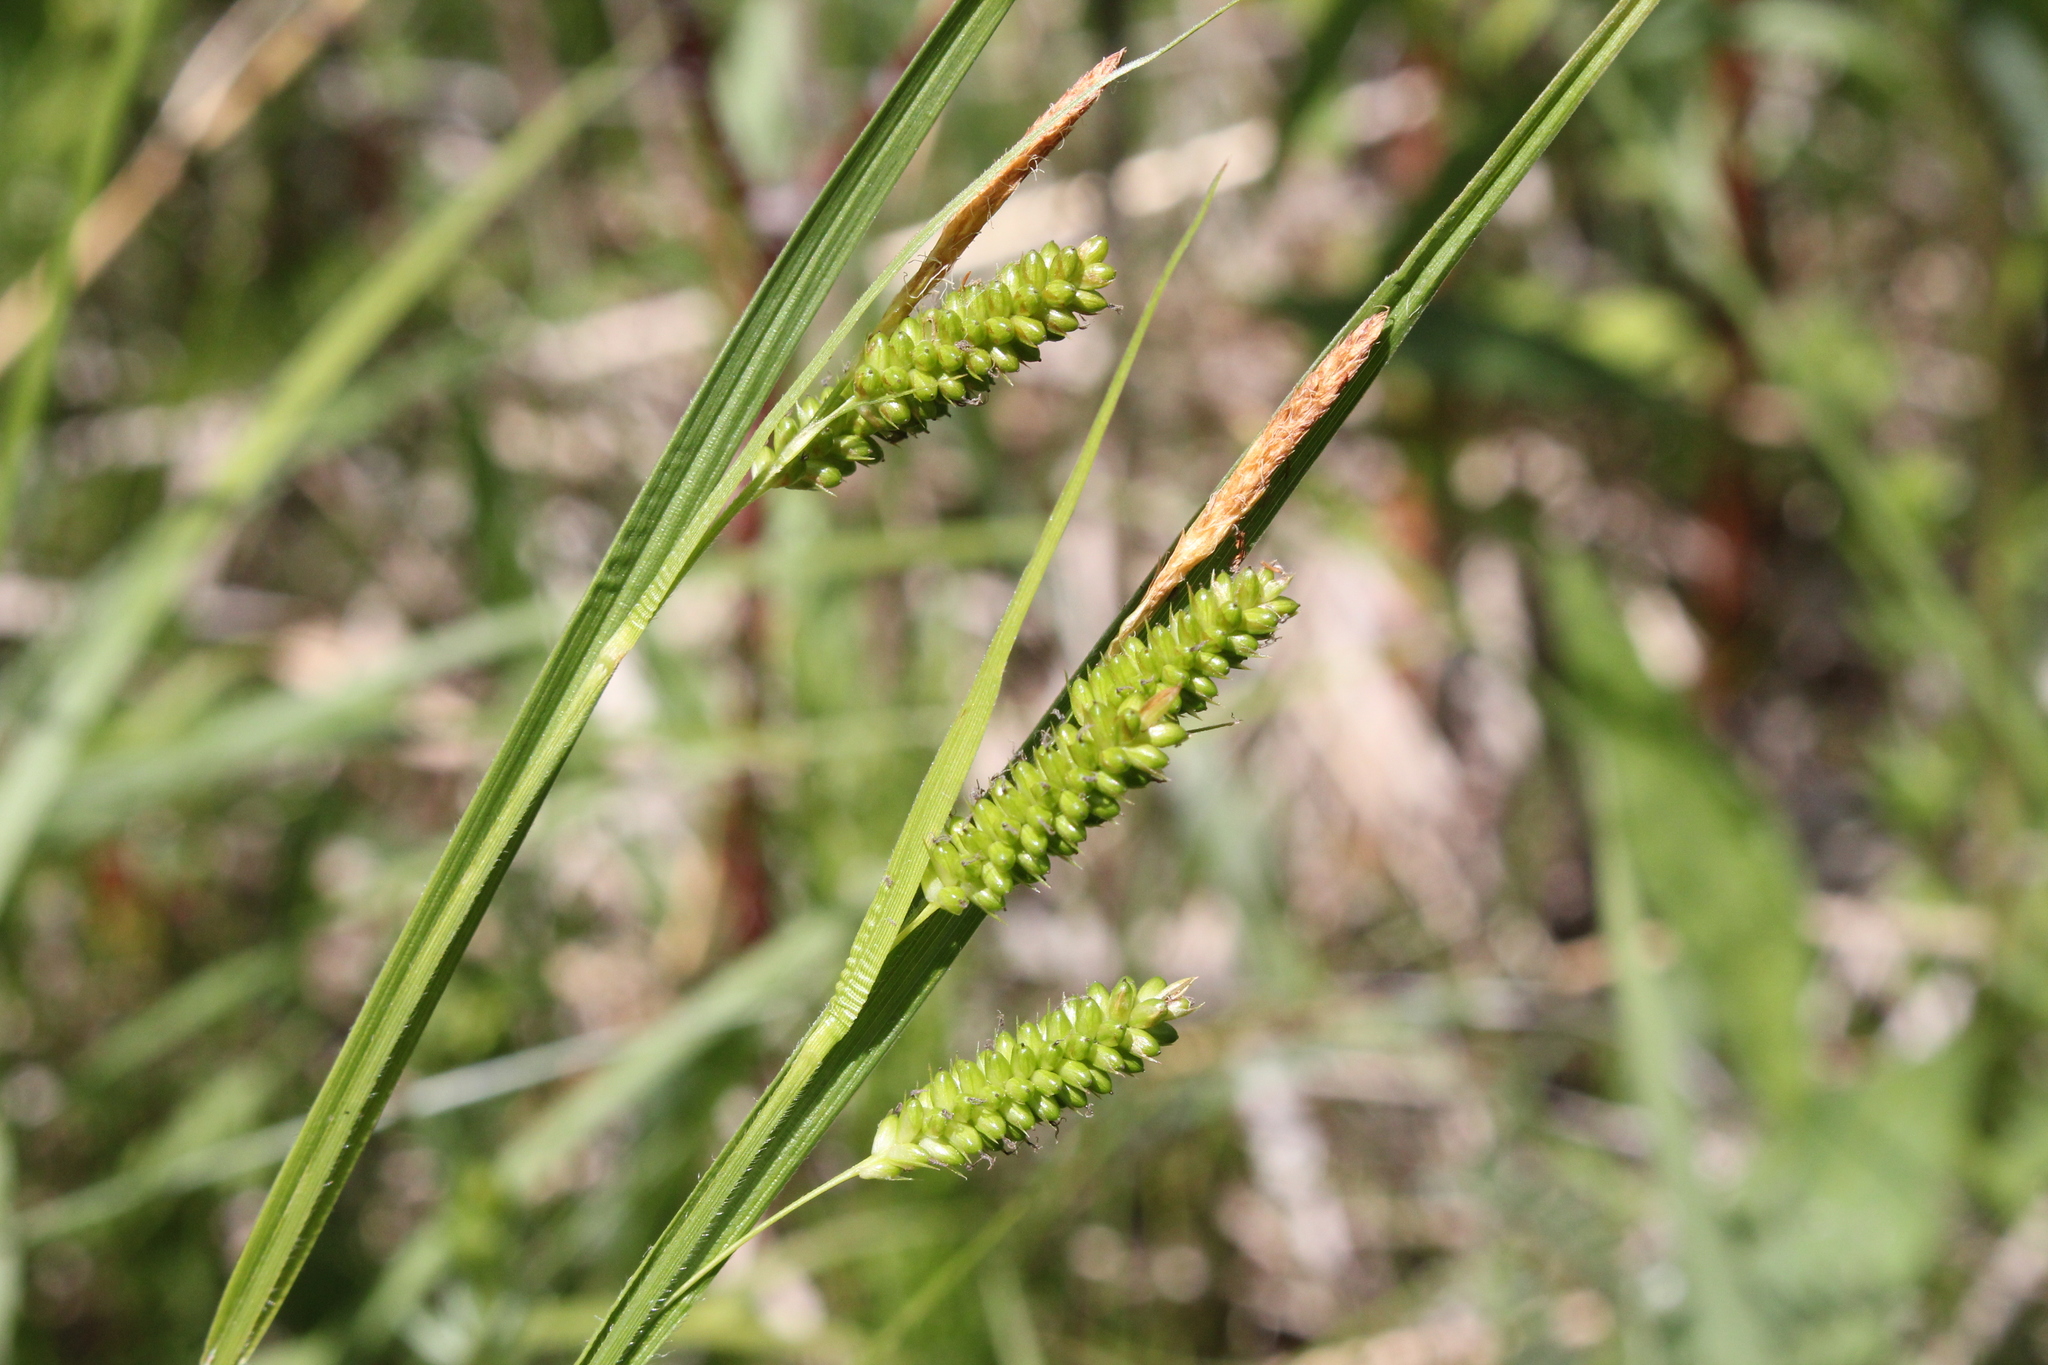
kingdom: Plantae
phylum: Tracheophyta
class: Liliopsida
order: Poales
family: Cyperaceae
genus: Carex
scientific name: Carex pallescens
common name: Pale sedge
